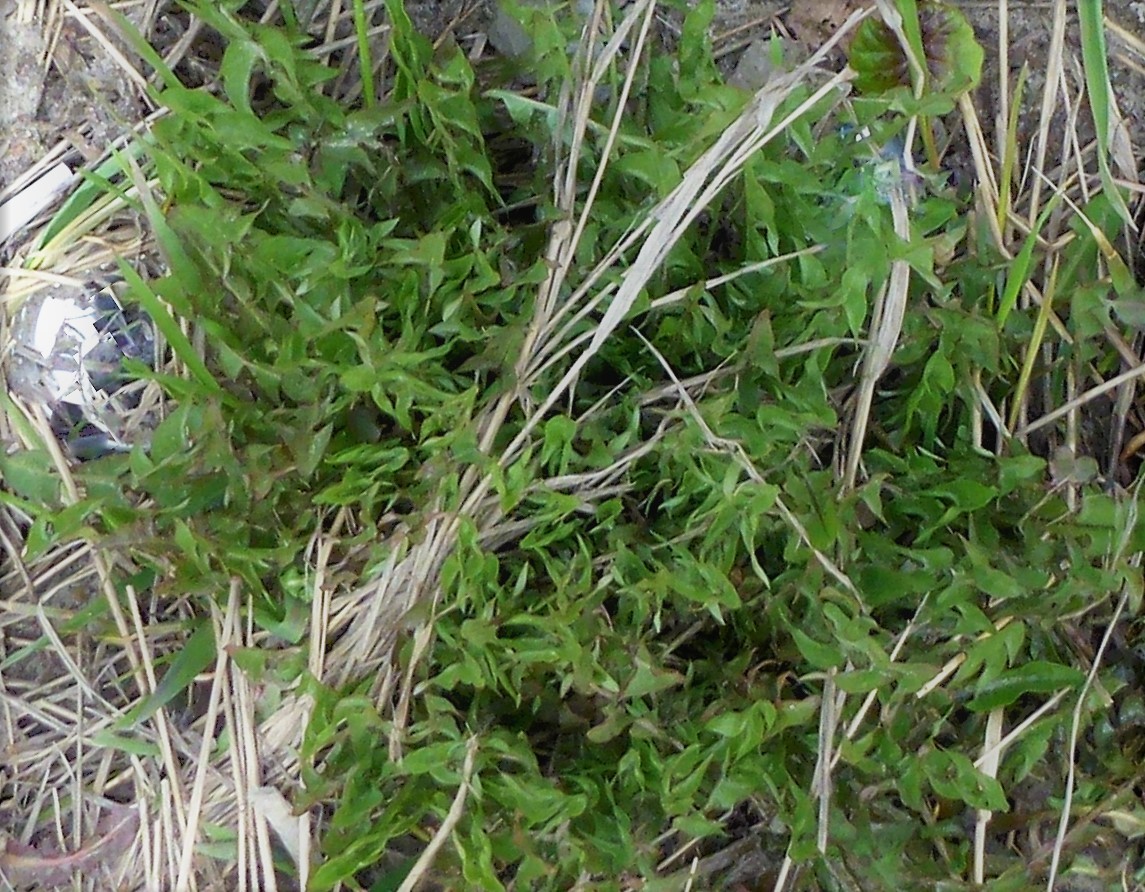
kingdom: Plantae
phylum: Tracheophyta
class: Magnoliopsida
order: Asterales
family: Asteraceae
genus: Taraxacum
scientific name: Taraxacum officinale
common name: Common dandelion
